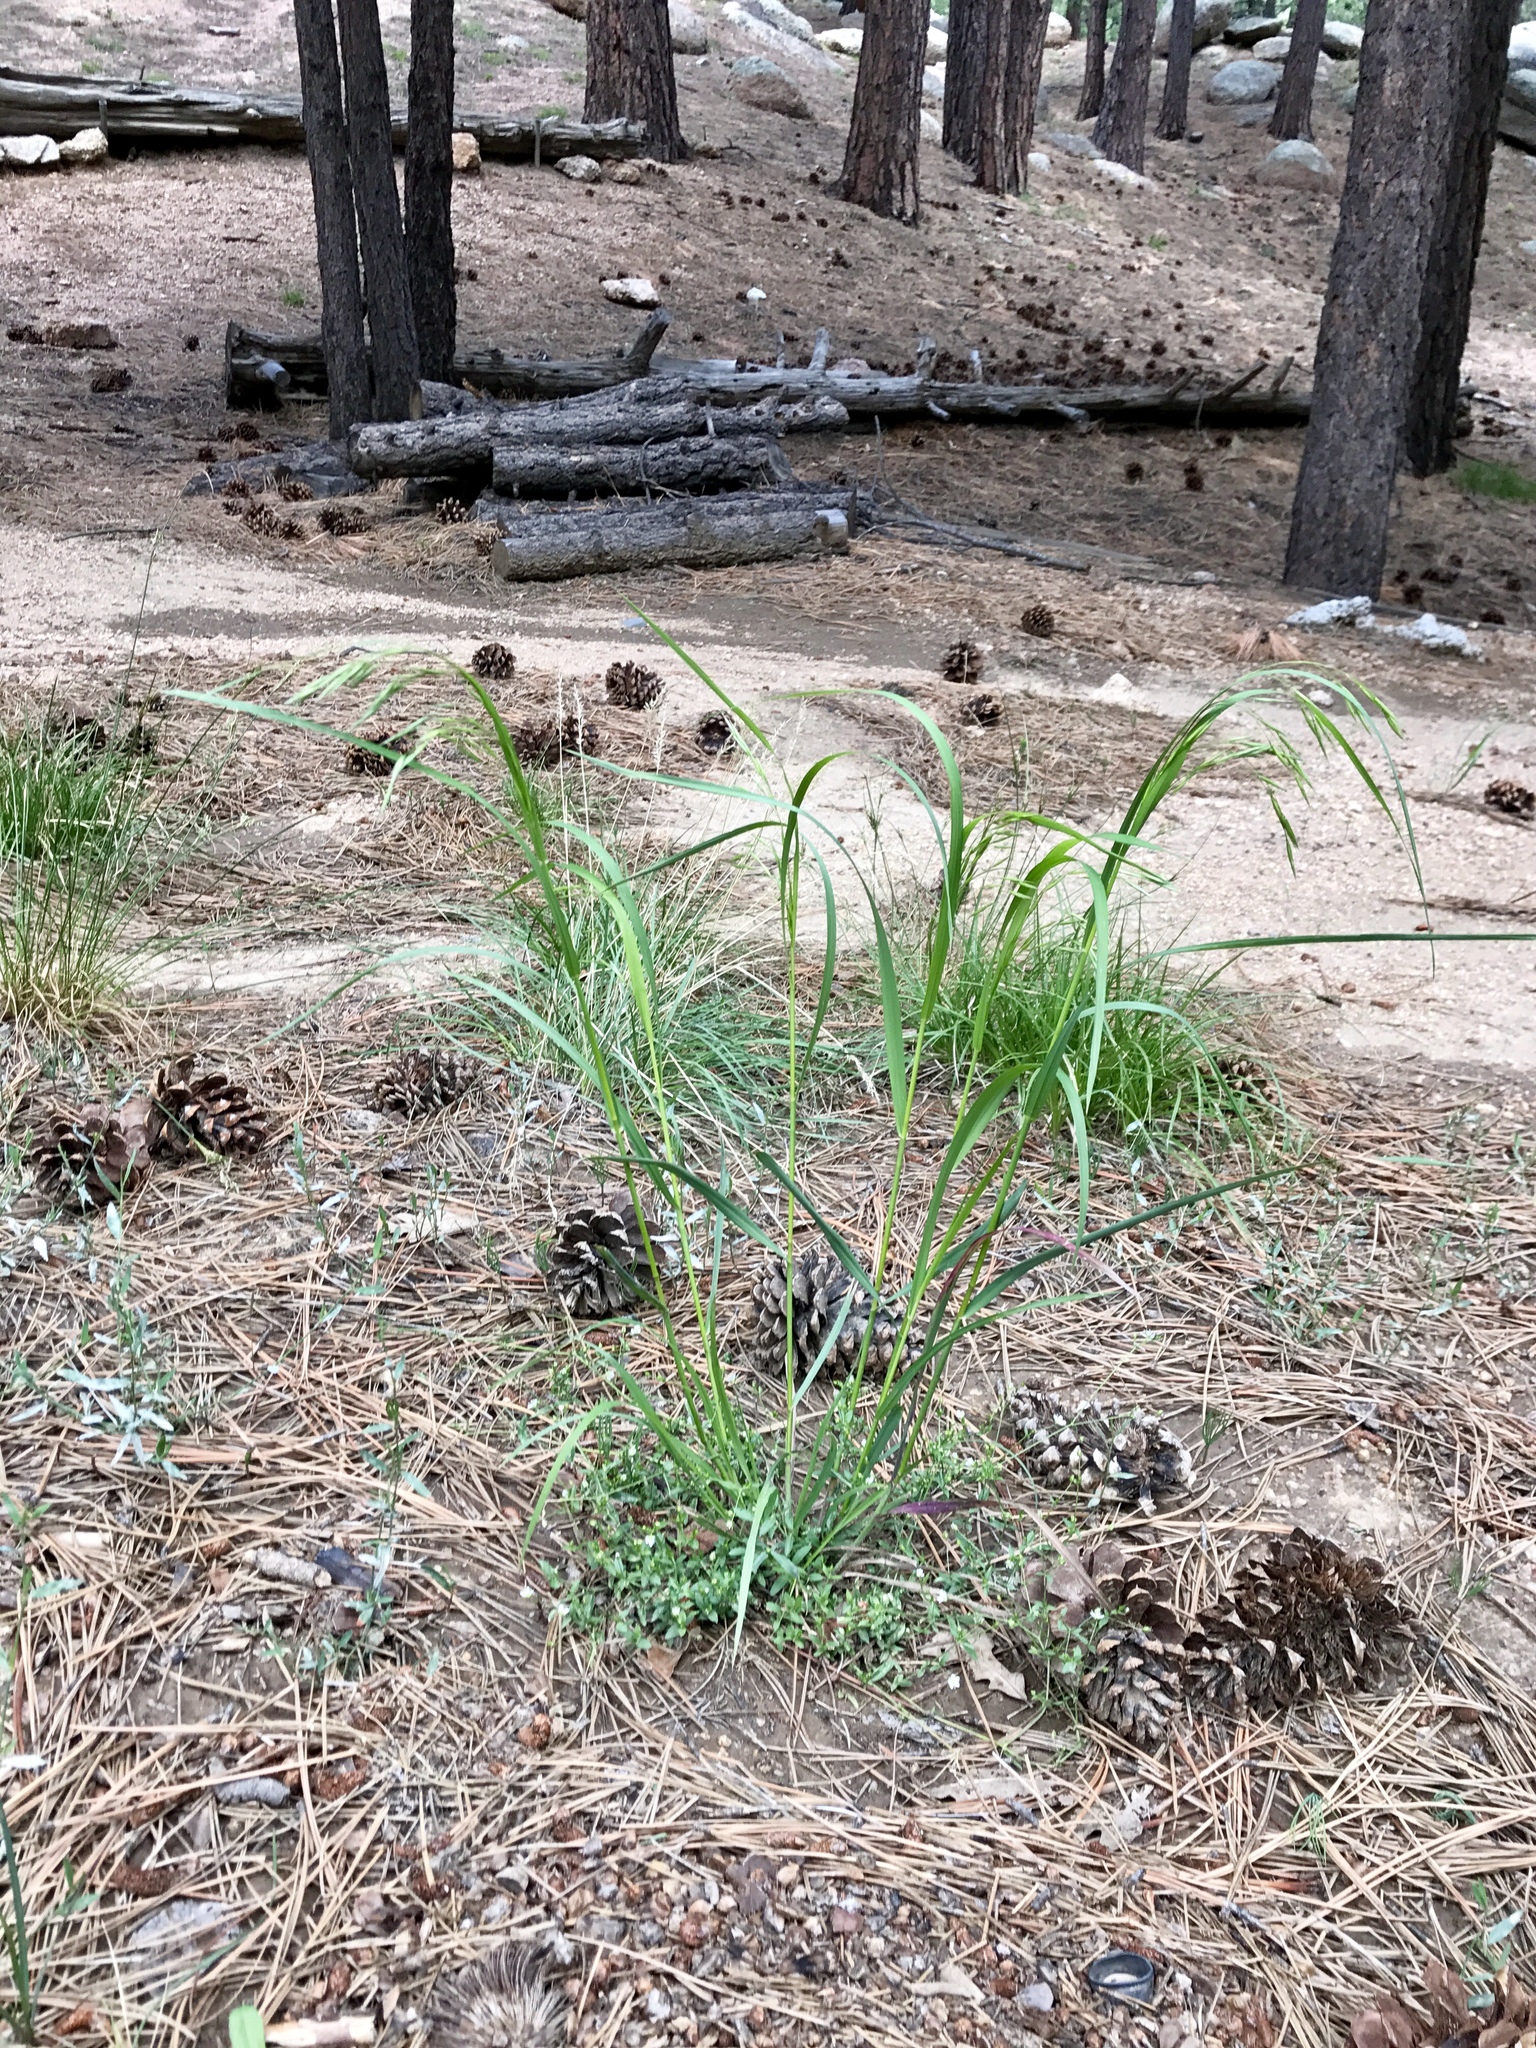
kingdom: Plantae
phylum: Tracheophyta
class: Liliopsida
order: Poales
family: Poaceae
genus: Bromus
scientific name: Bromus ciliatus
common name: Fringe brome
